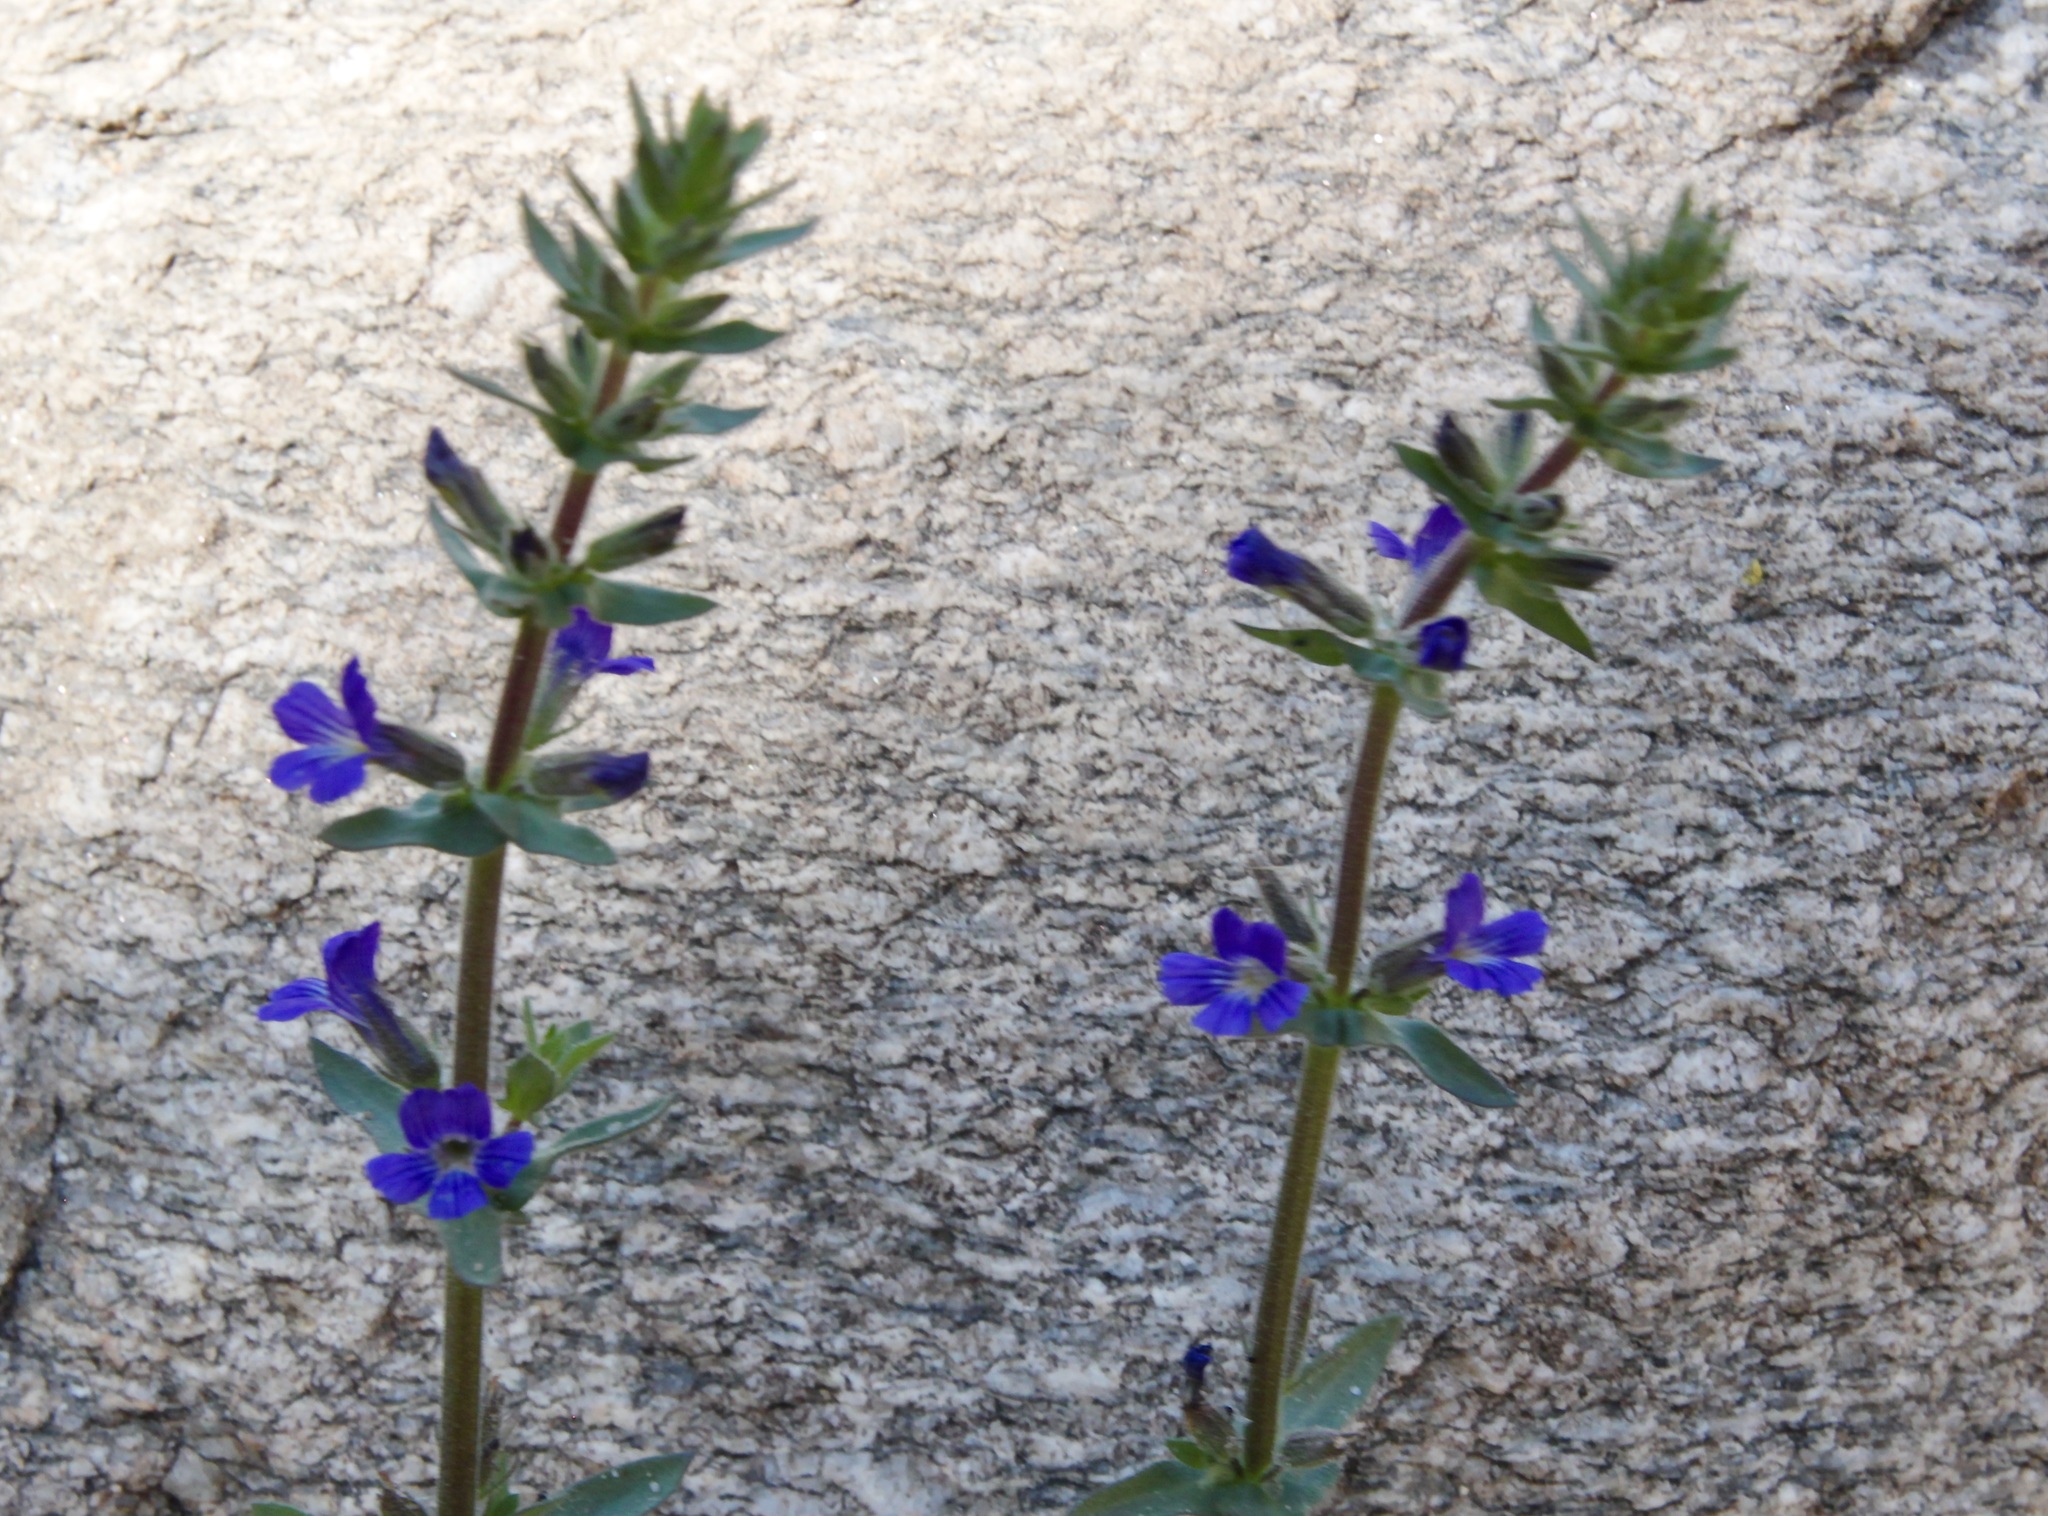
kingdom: Plantae
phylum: Tracheophyta
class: Magnoliopsida
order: Lamiales
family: Plantaginaceae
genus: Stemodia
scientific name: Stemodia durantifolia
